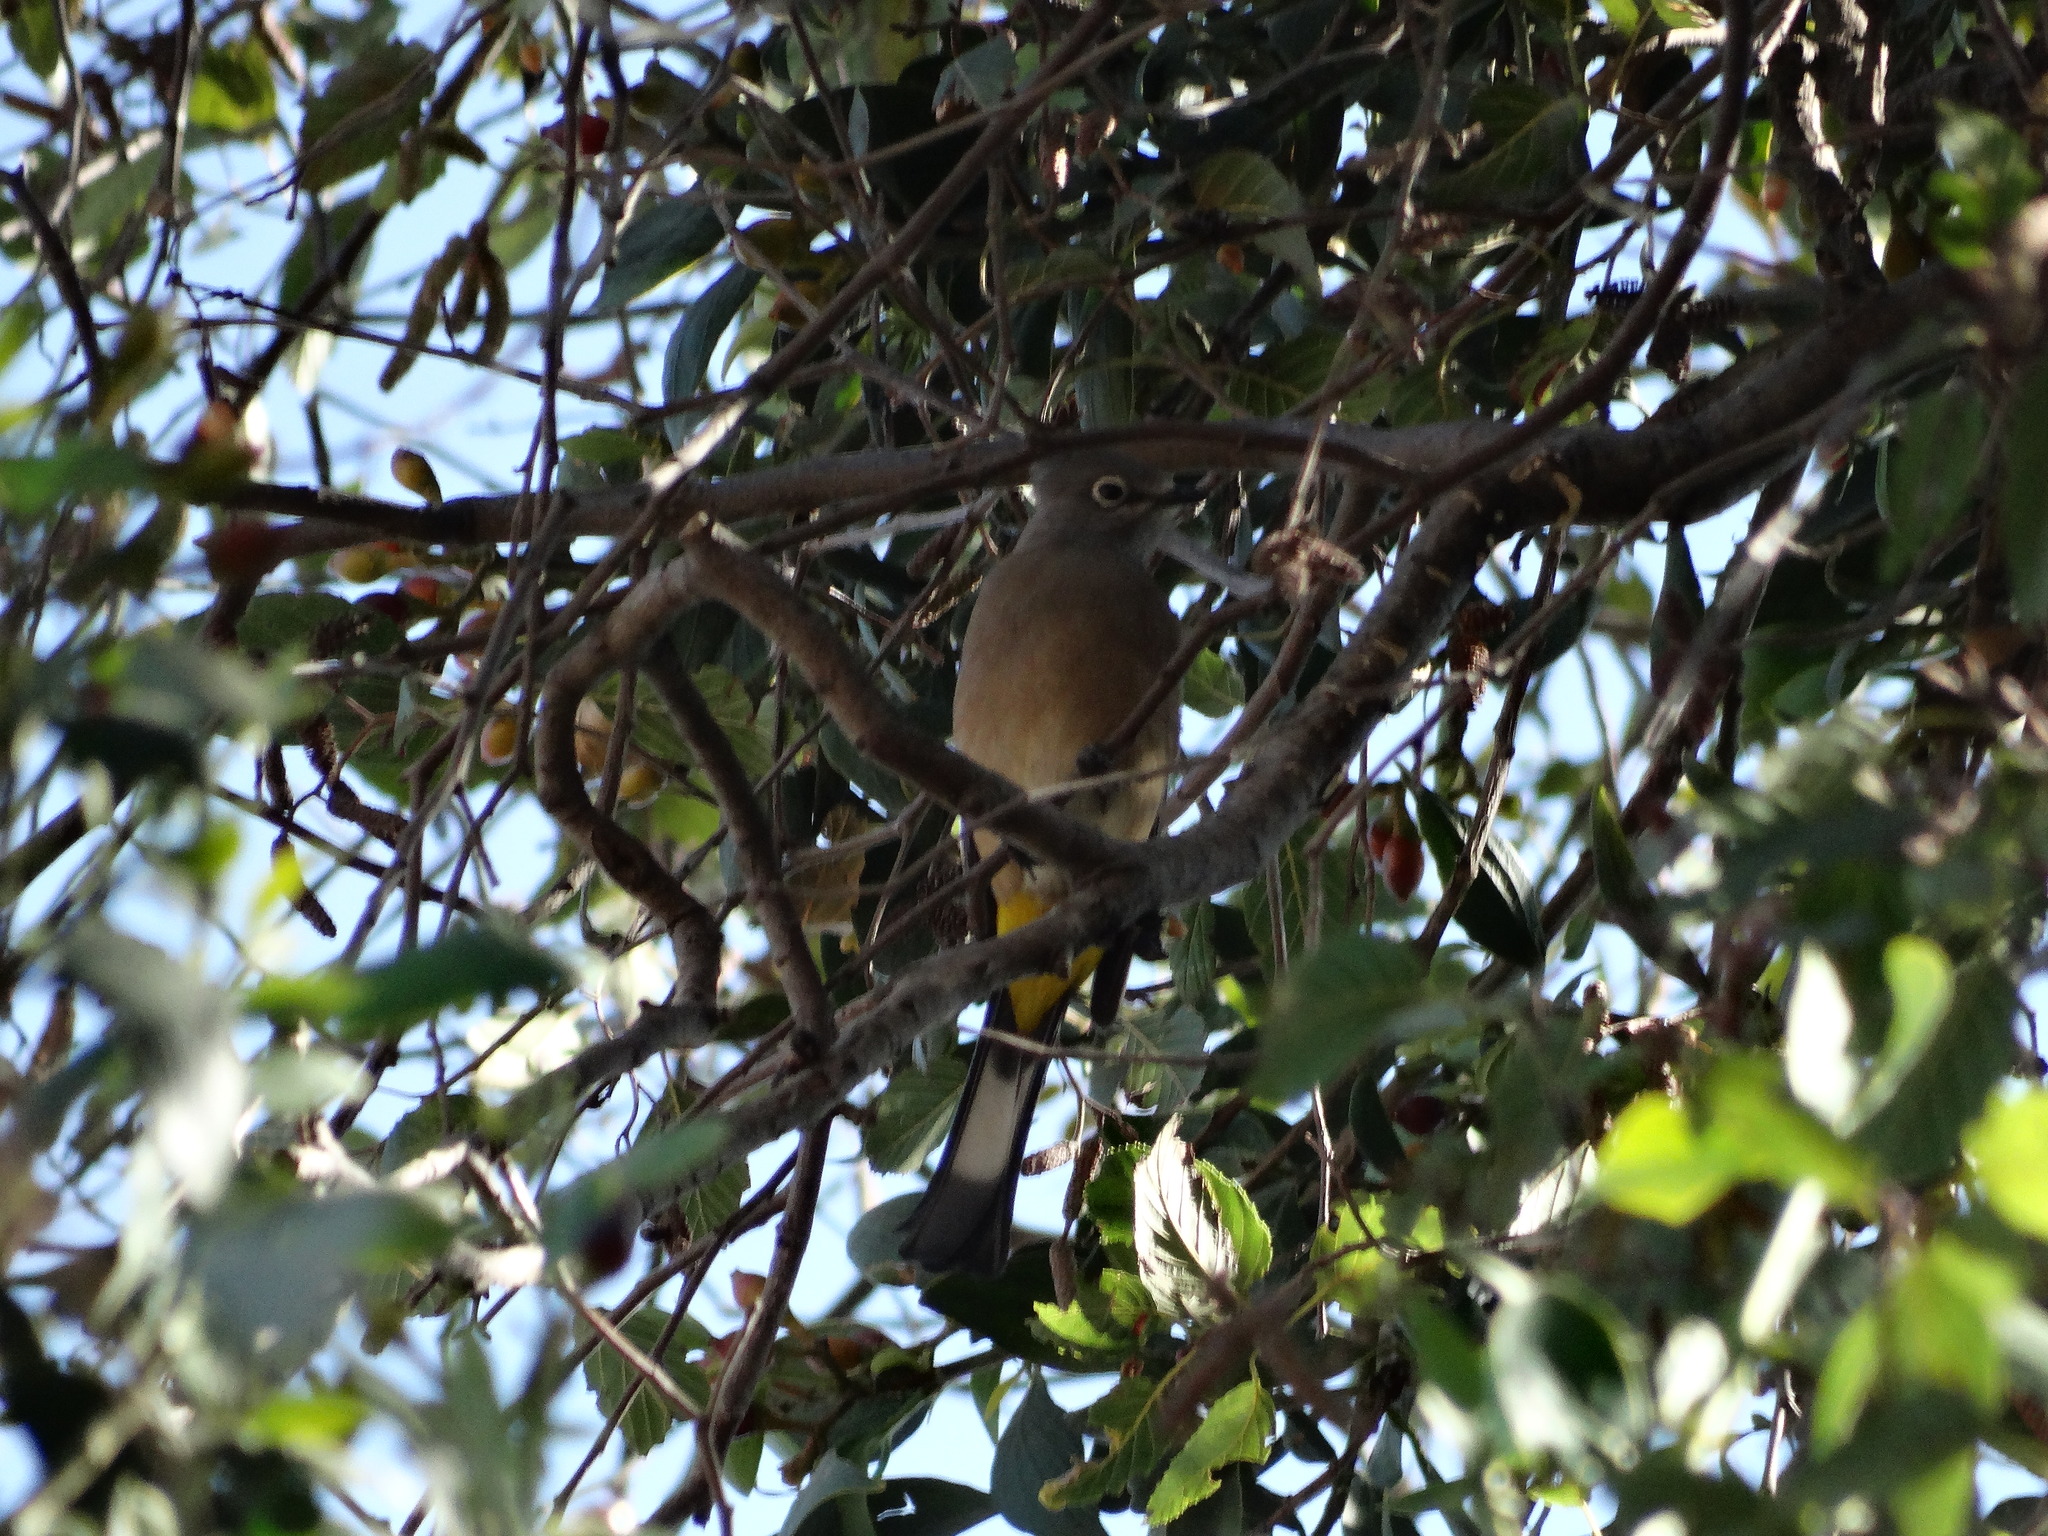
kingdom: Animalia
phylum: Chordata
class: Aves
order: Passeriformes
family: Ptilogonatidae
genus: Ptilogonys
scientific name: Ptilogonys cinereus
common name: Gray silky-flycatcher
